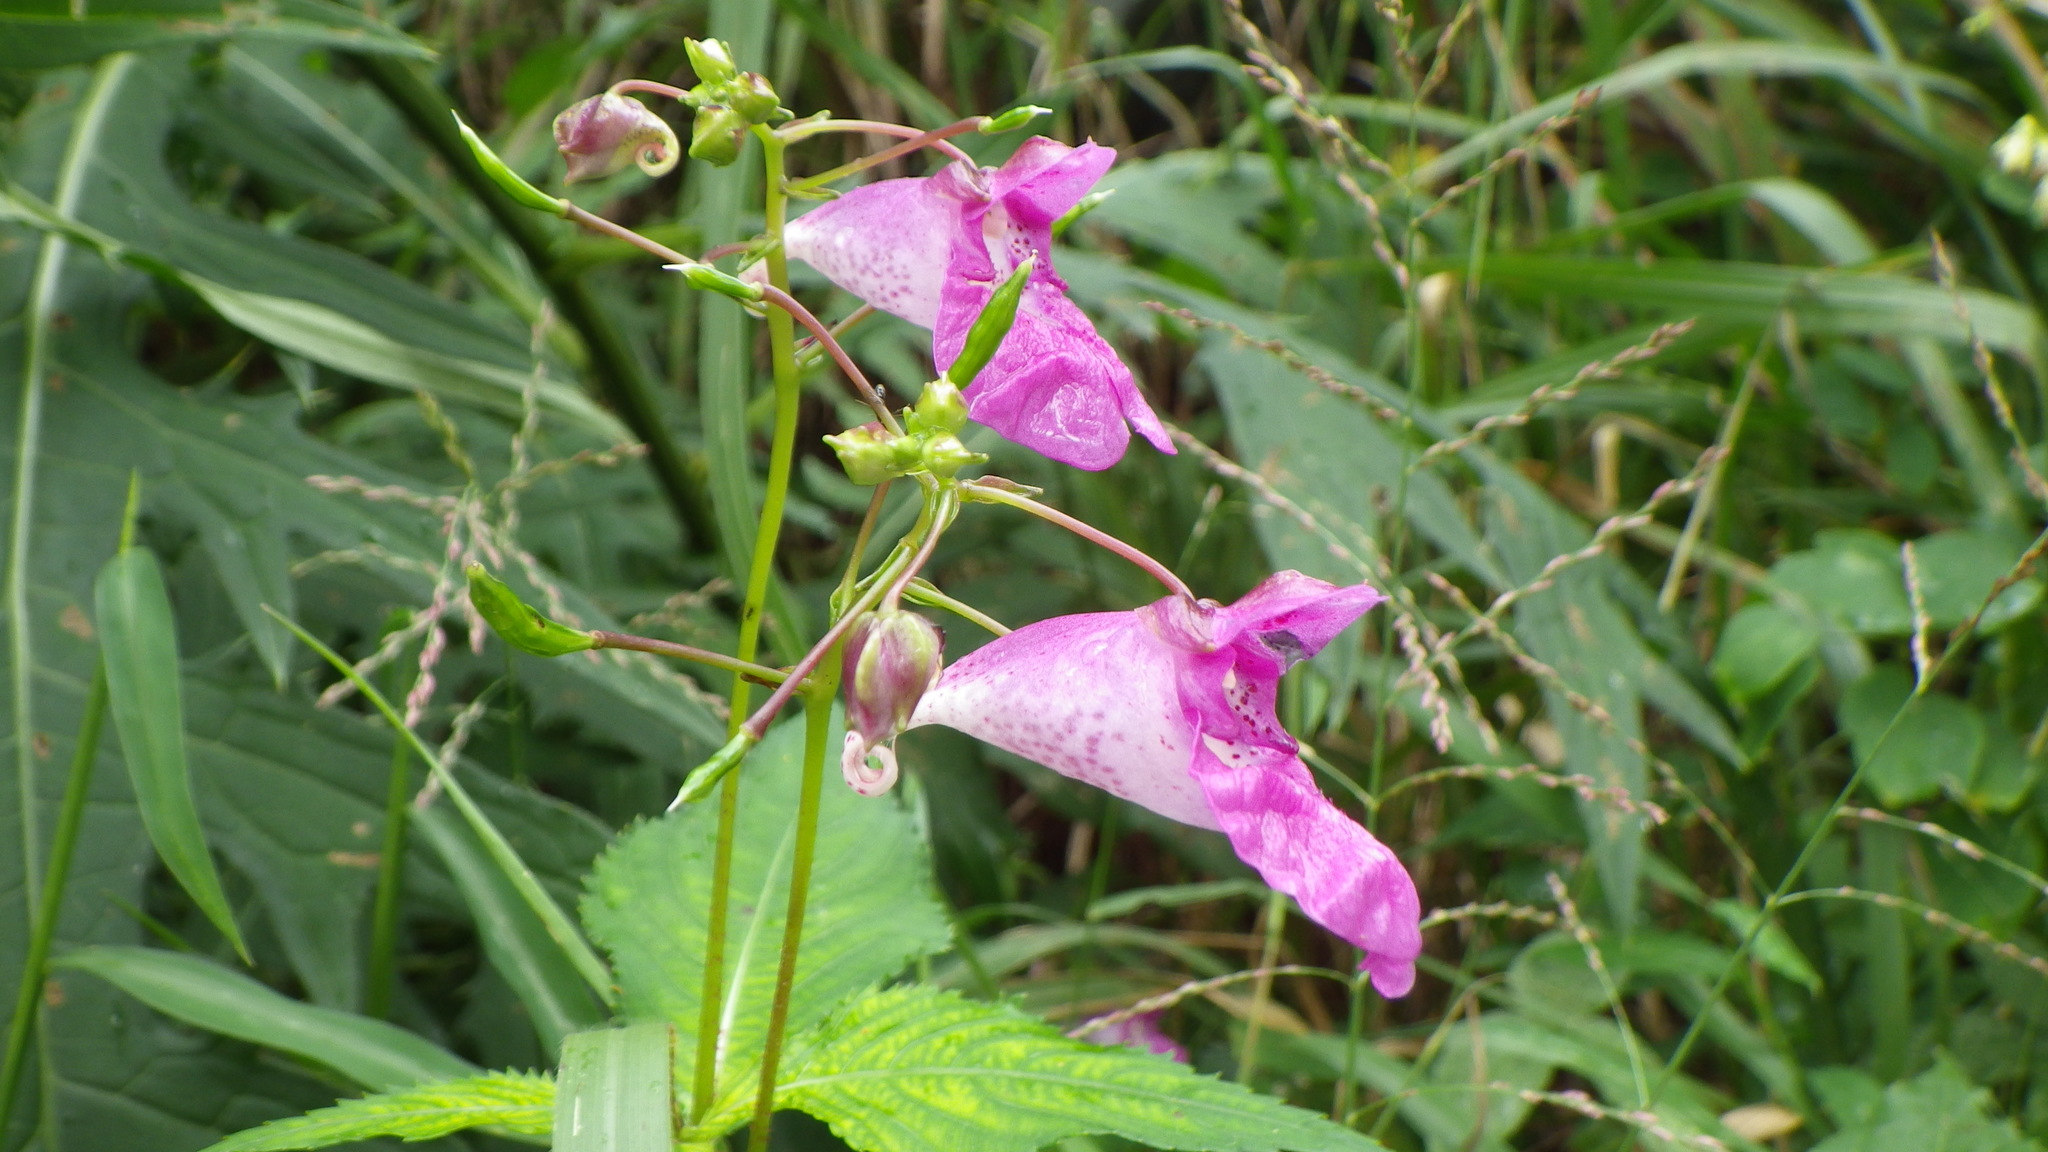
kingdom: Plantae
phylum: Tracheophyta
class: Magnoliopsida
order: Ericales
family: Balsaminaceae
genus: Impatiens
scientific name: Impatiens textorii
